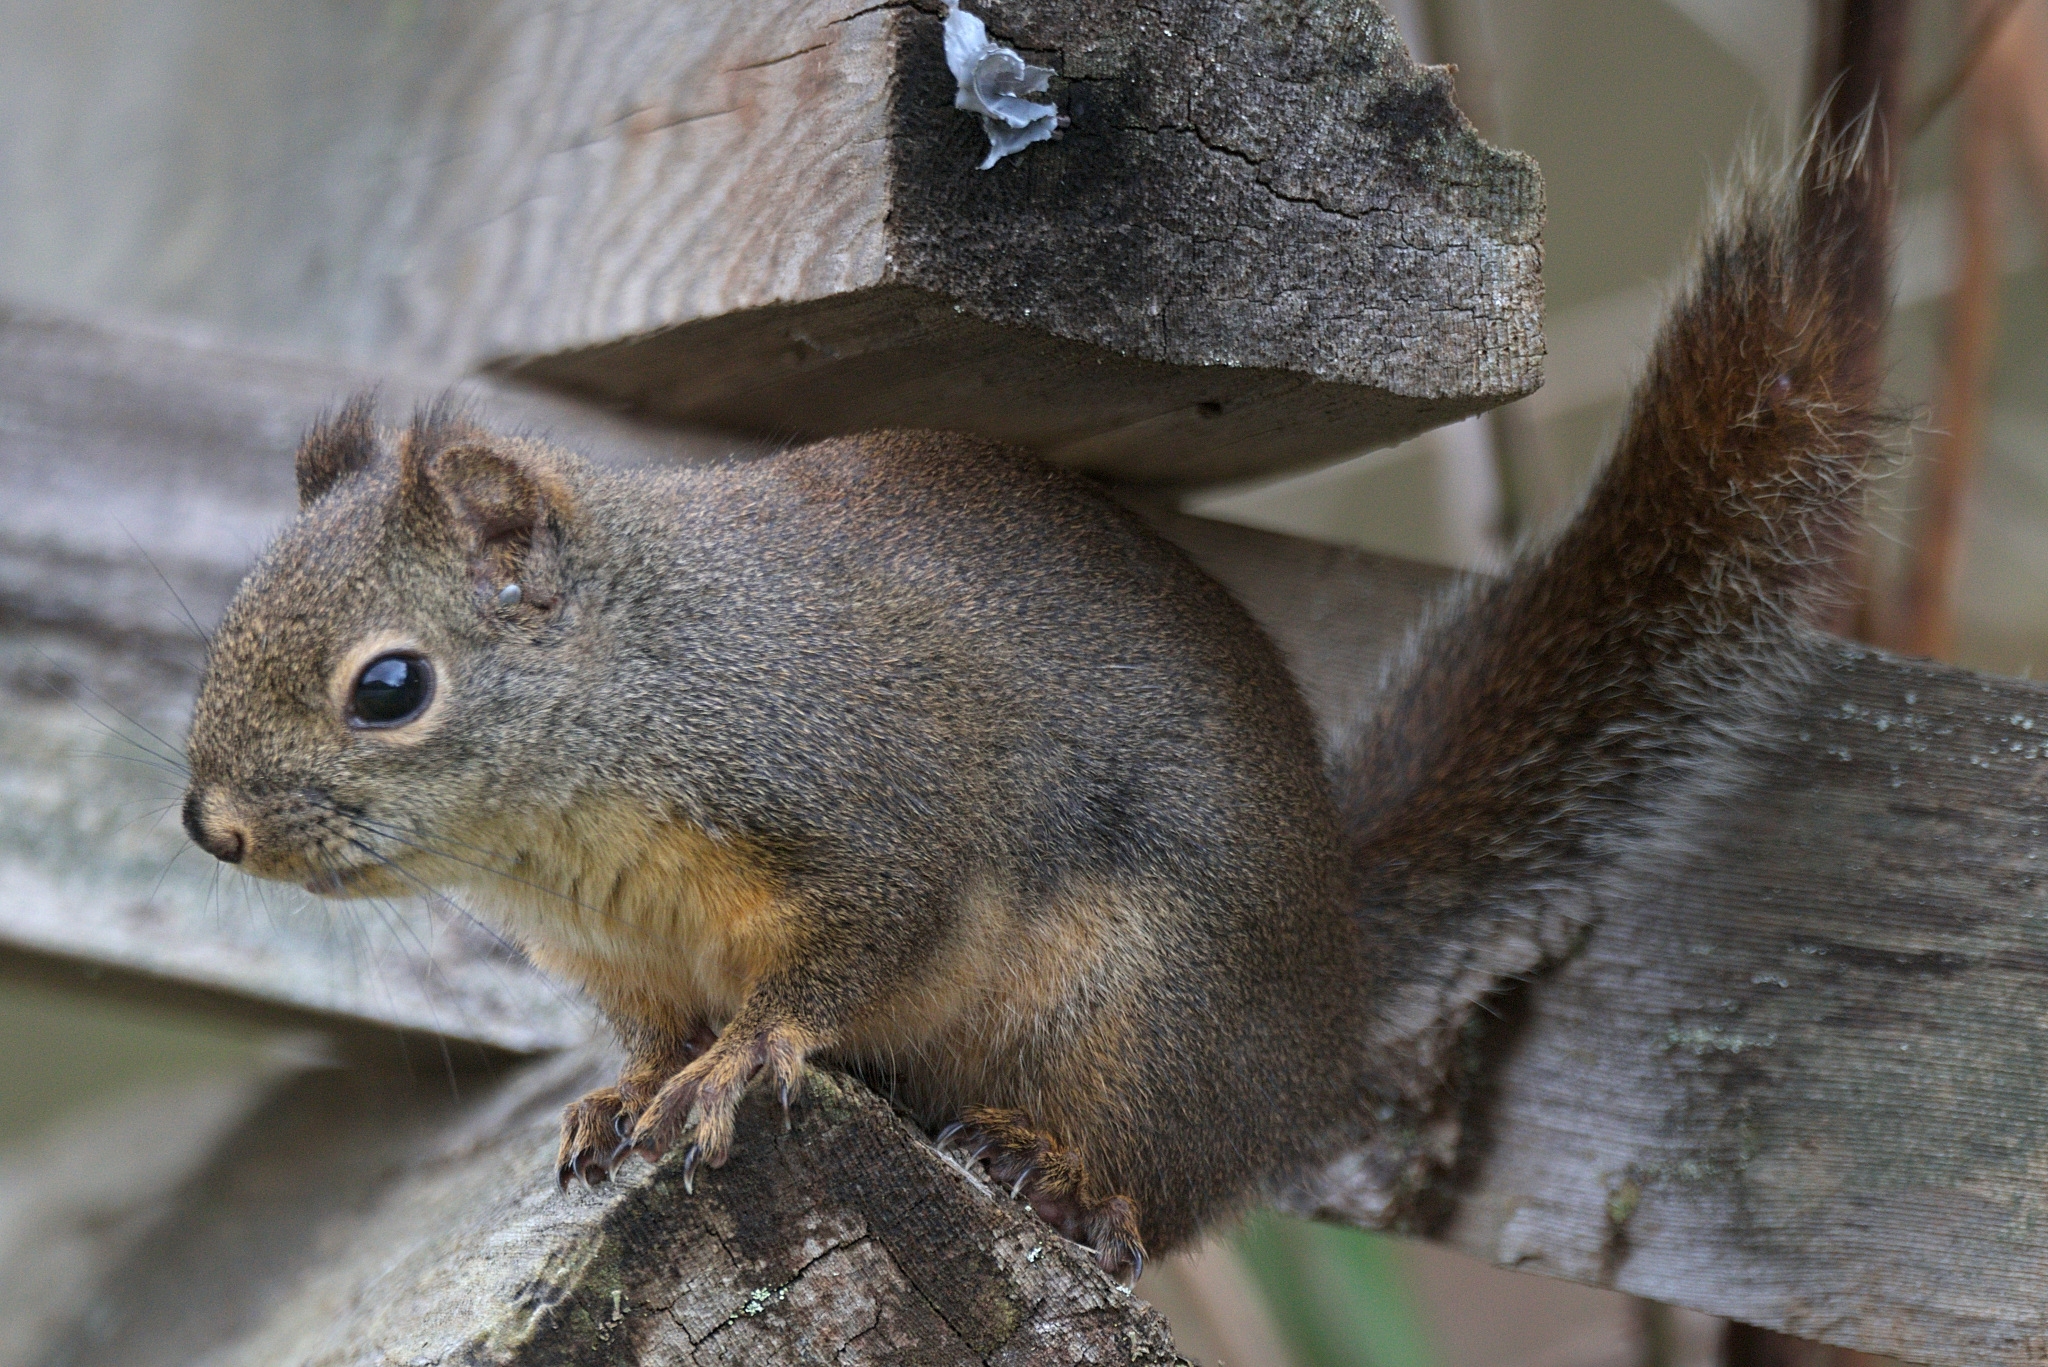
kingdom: Animalia
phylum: Chordata
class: Mammalia
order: Rodentia
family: Sciuridae
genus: Tamiasciurus
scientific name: Tamiasciurus douglasii
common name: Douglas's squirrel
